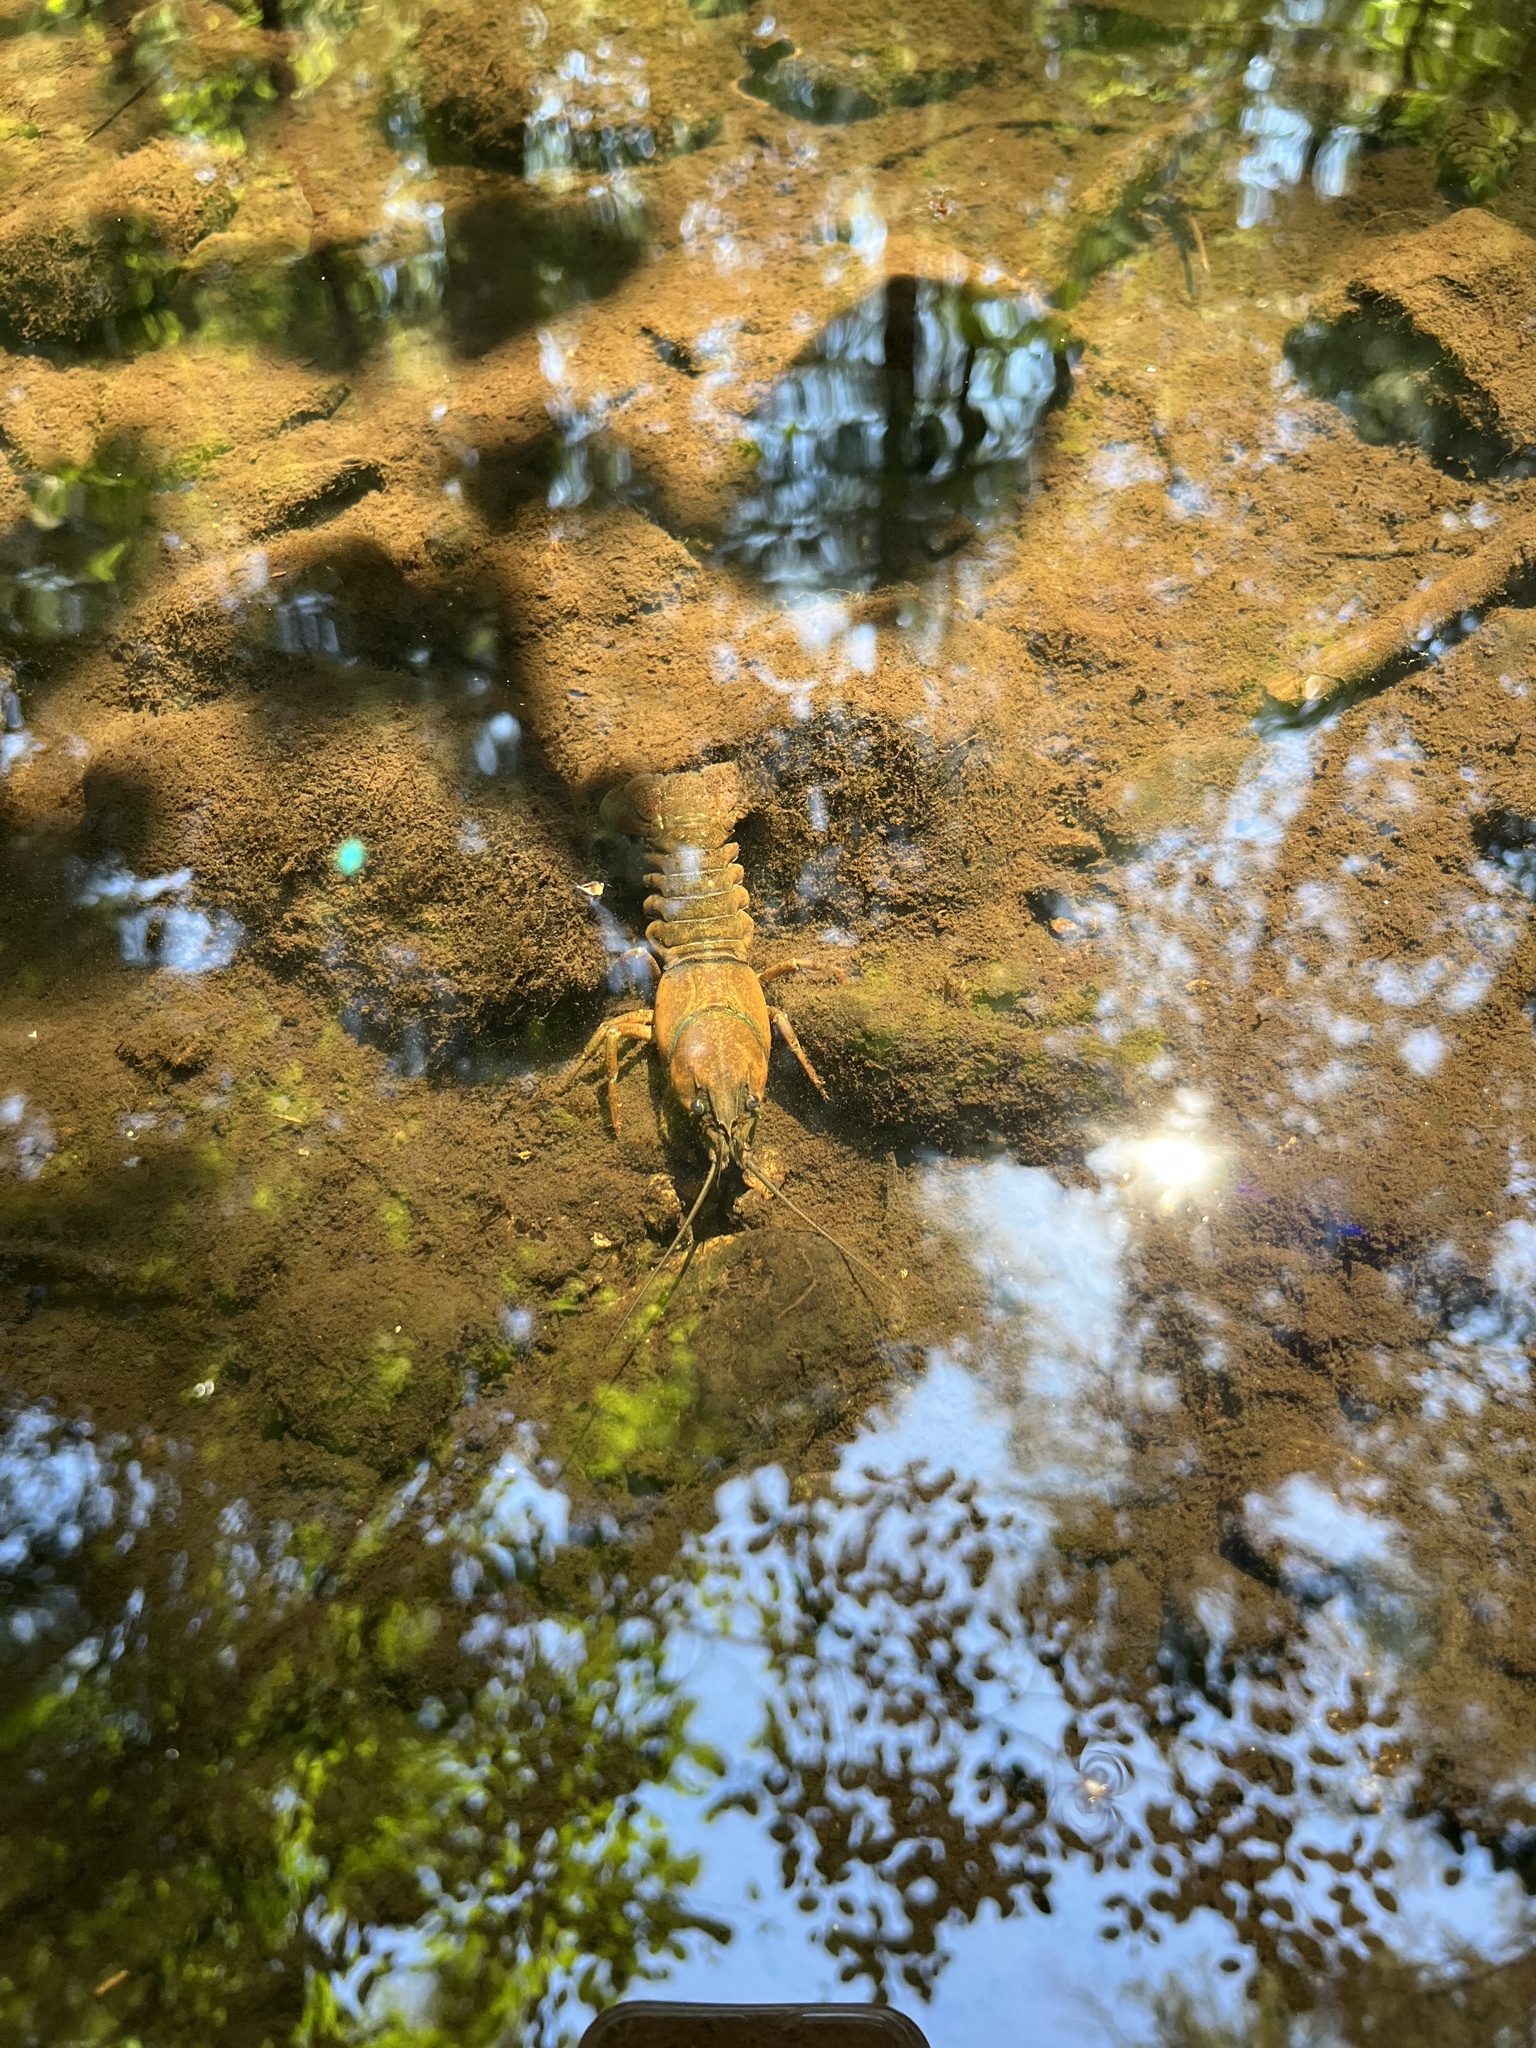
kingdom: Animalia
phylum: Arthropoda
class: Malacostraca
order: Decapoda
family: Astacidae
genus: Pacifastacus
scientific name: Pacifastacus leniusculus
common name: Signal crayfish
